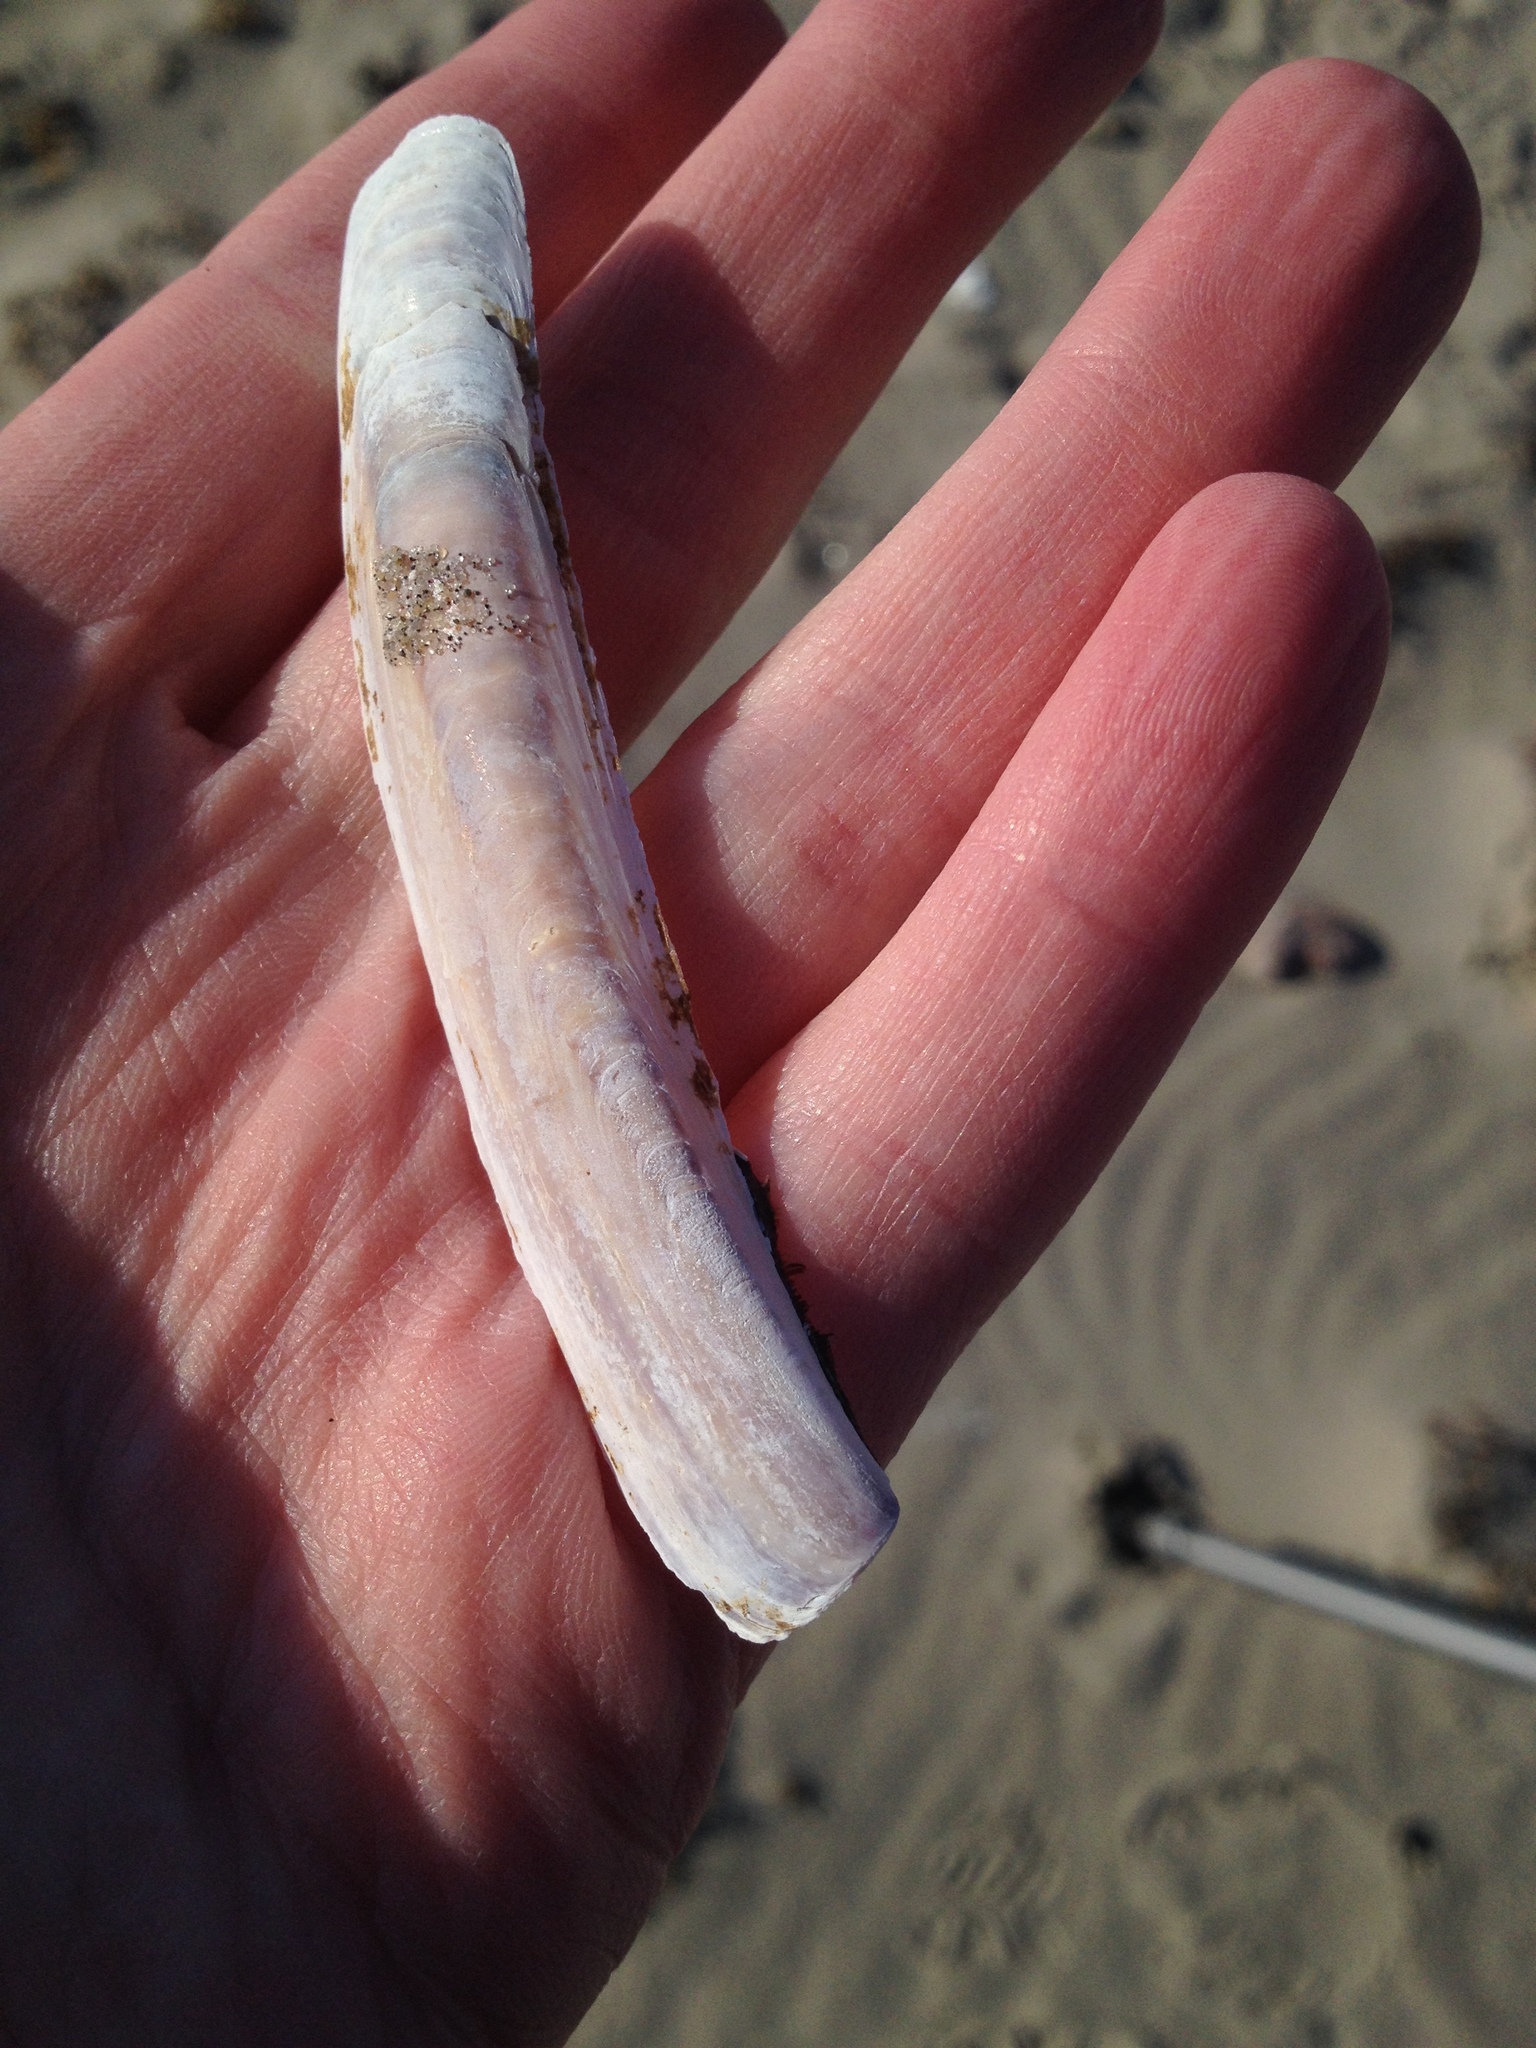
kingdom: Animalia
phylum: Mollusca
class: Bivalvia
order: Adapedonta
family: Pharidae
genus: Ensis
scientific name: Ensis leei
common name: American jack knife clam
